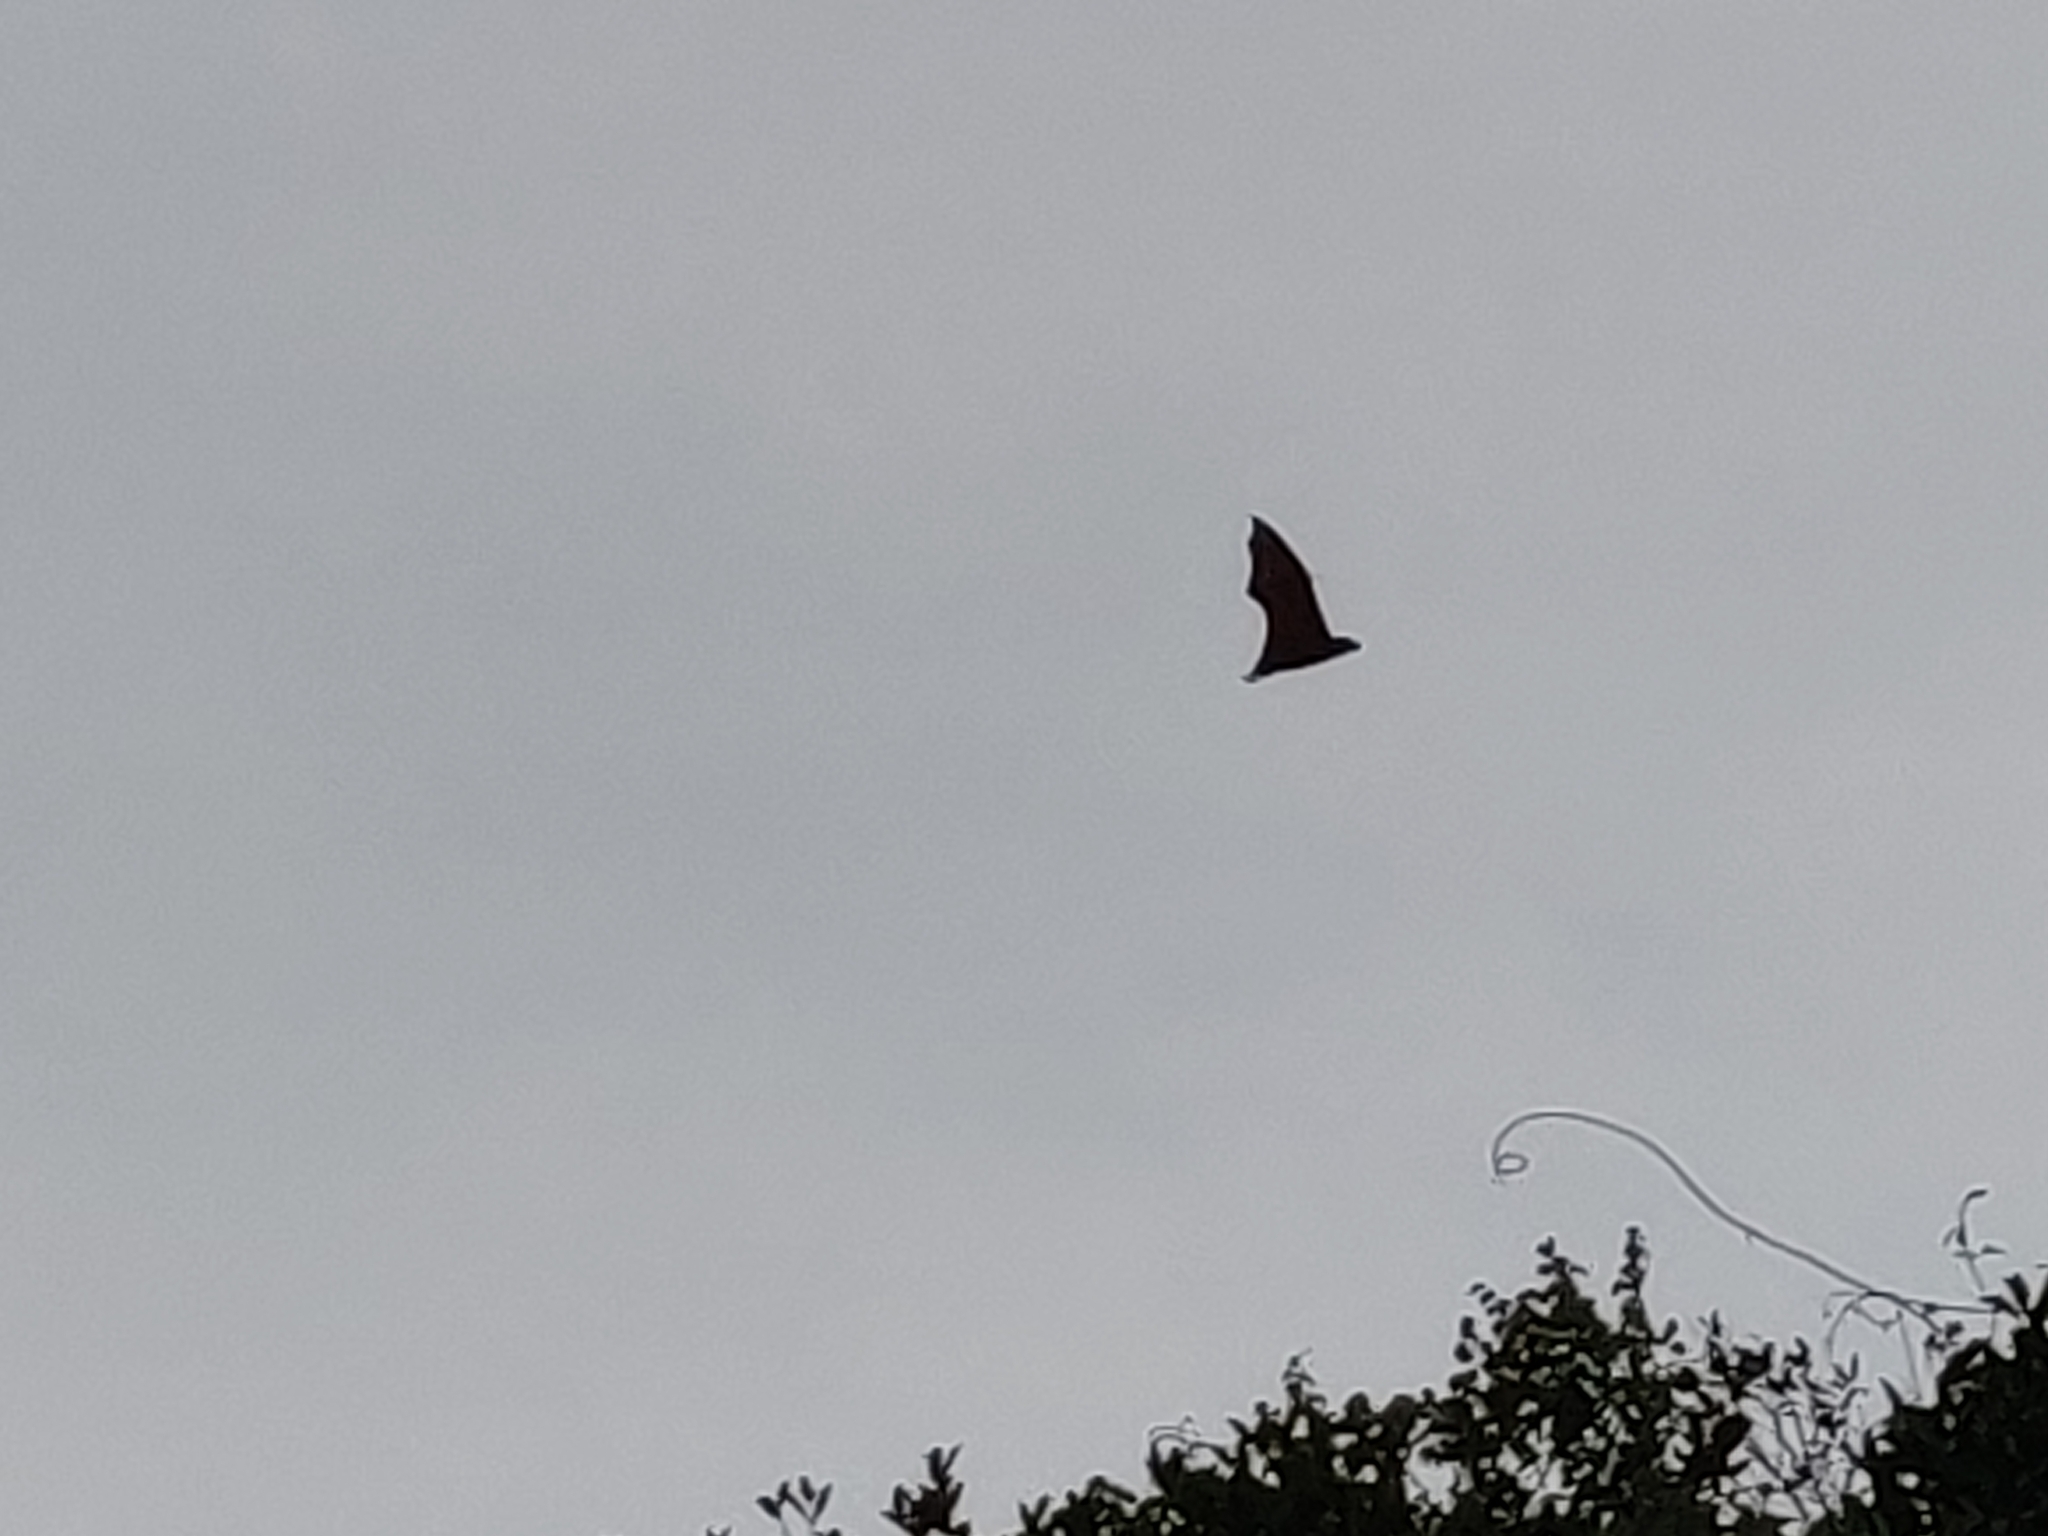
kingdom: Animalia
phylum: Chordata
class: Mammalia
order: Chiroptera
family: Pteropodidae
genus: Pteropus
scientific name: Pteropus vampyrus
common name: Large flying fox
